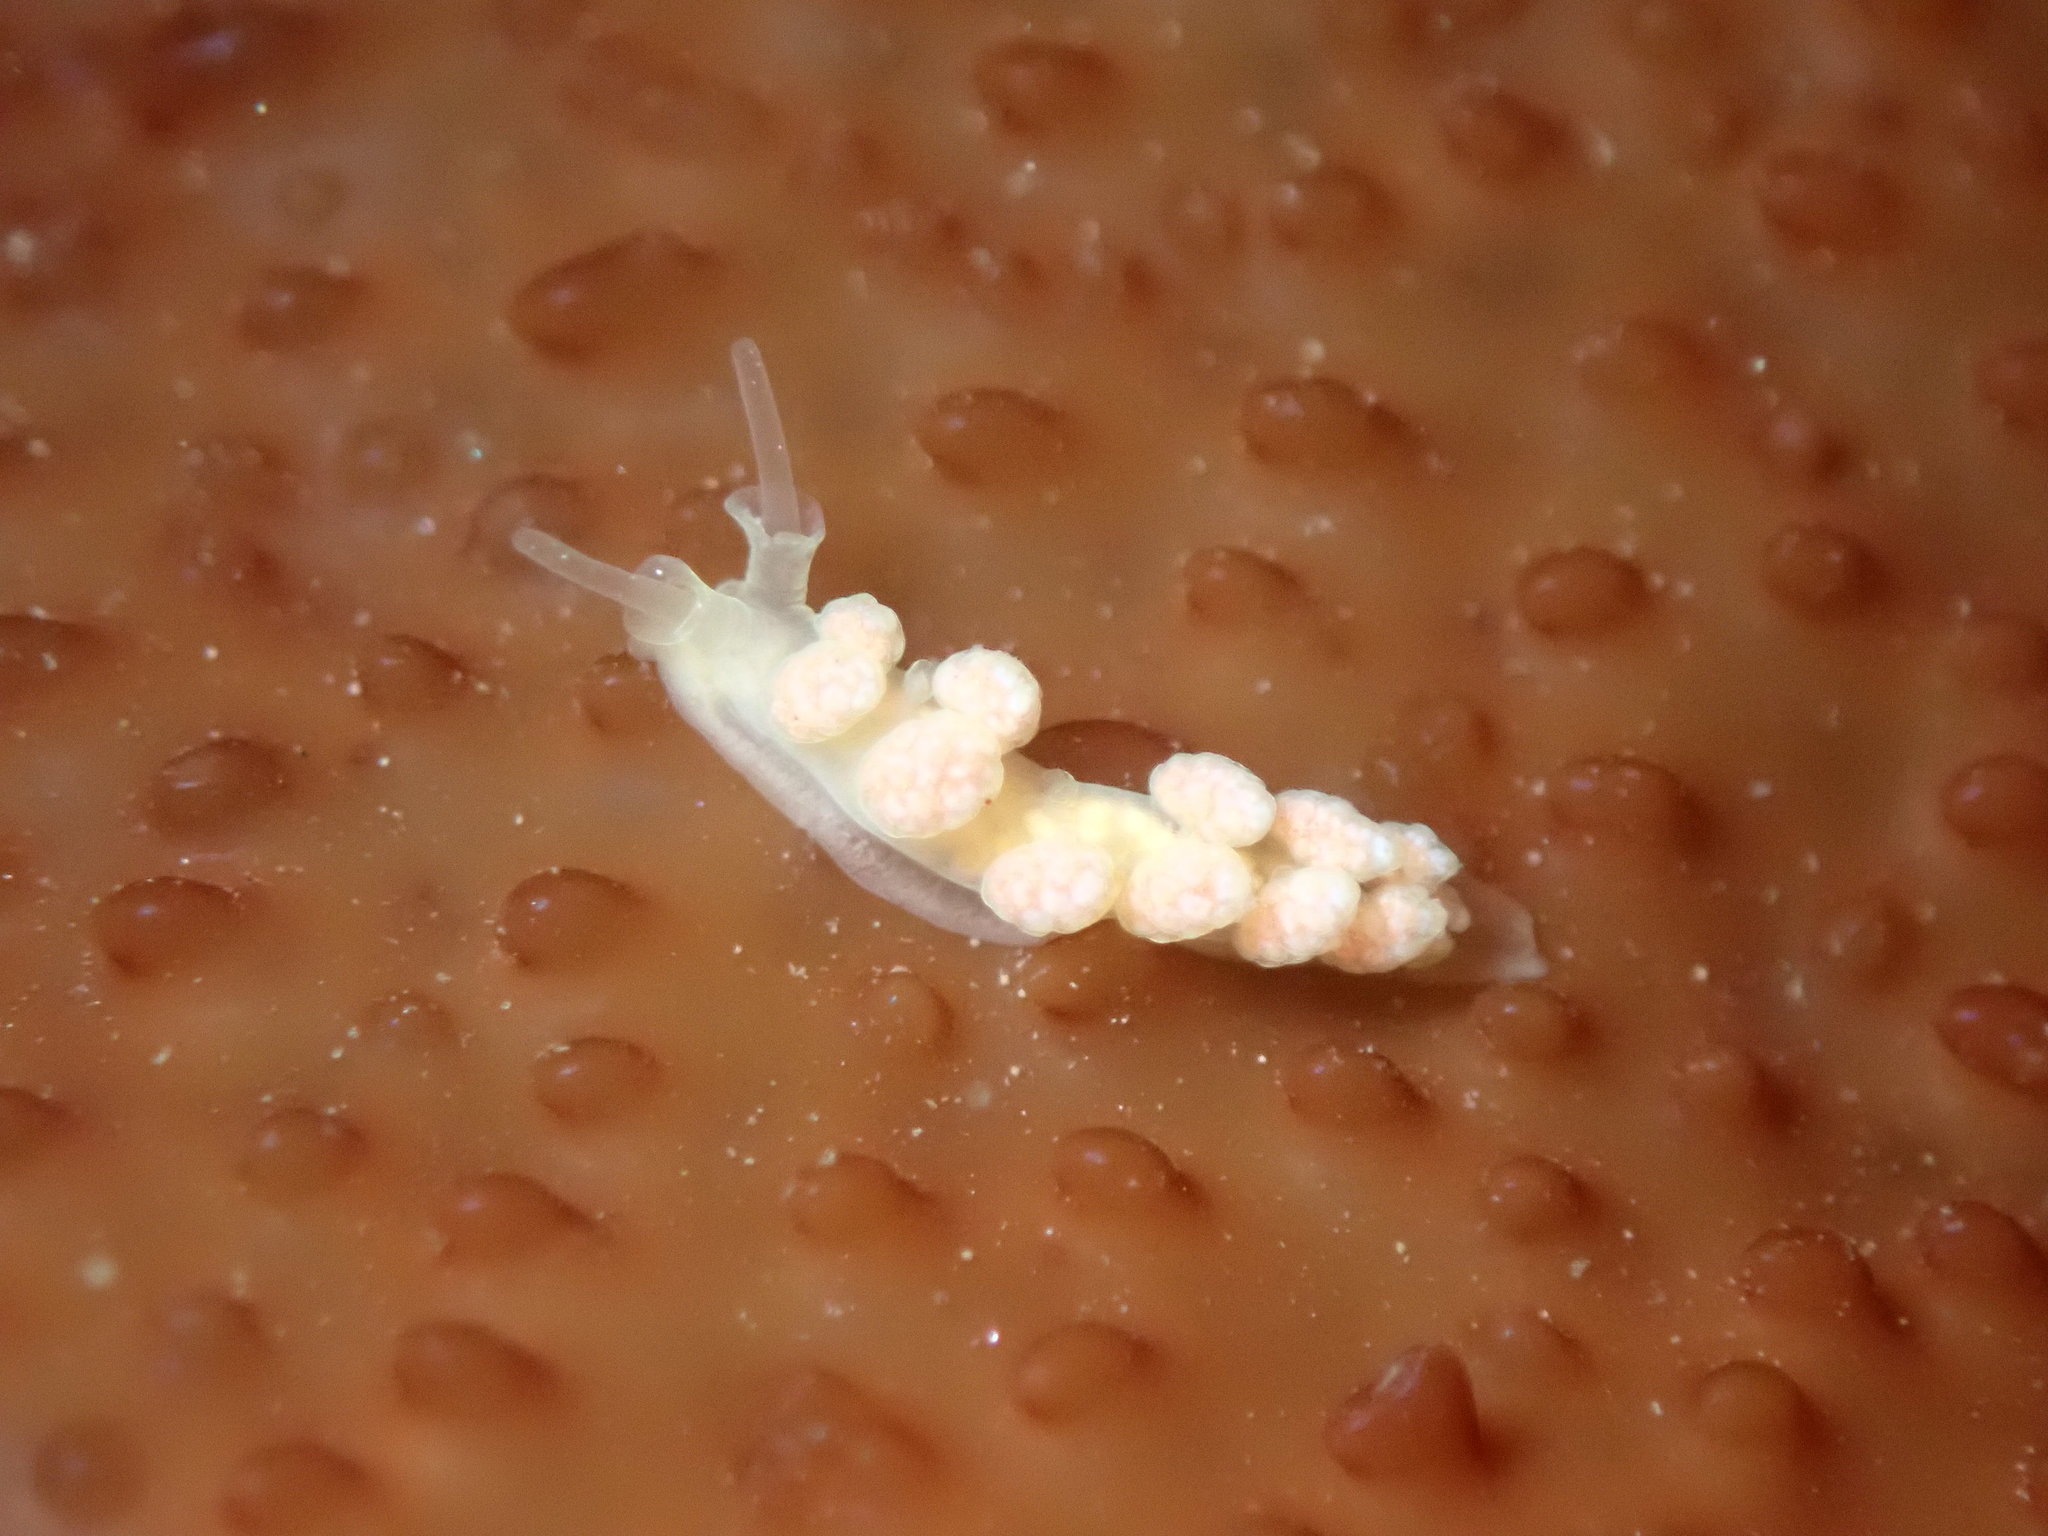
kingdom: Animalia
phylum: Mollusca
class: Gastropoda
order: Nudibranchia
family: Dotidae
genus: Doto
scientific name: Doto amyra
